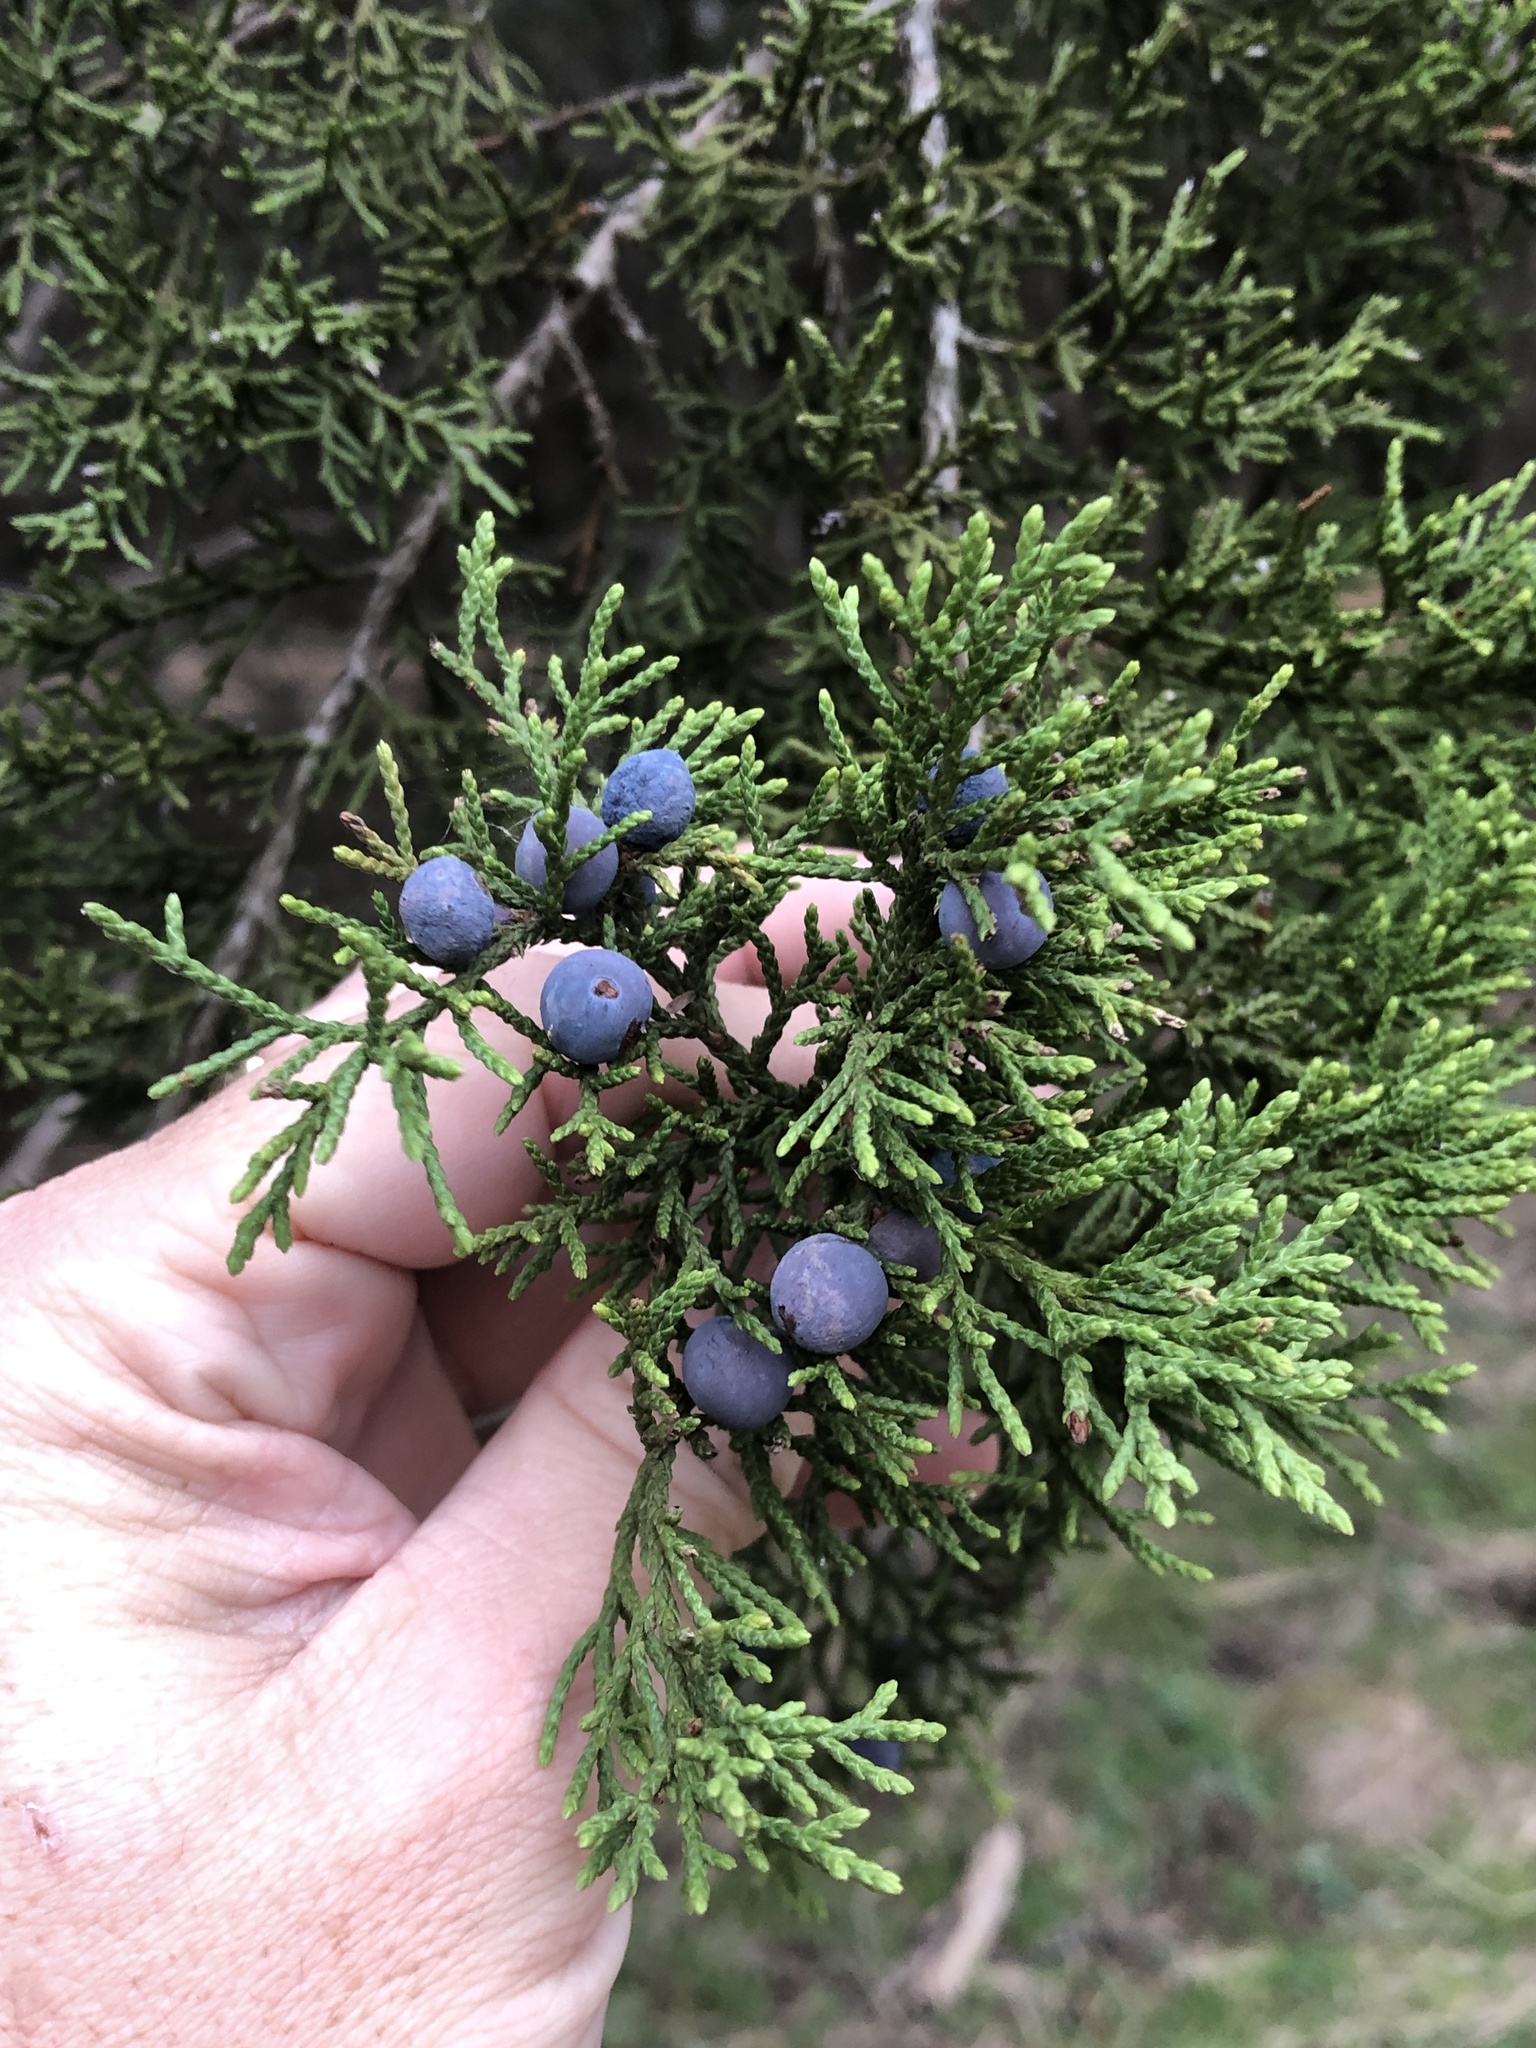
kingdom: Plantae
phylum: Tracheophyta
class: Pinopsida
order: Pinales
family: Cupressaceae
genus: Juniperus
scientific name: Juniperus ashei
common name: Mexican juniper
